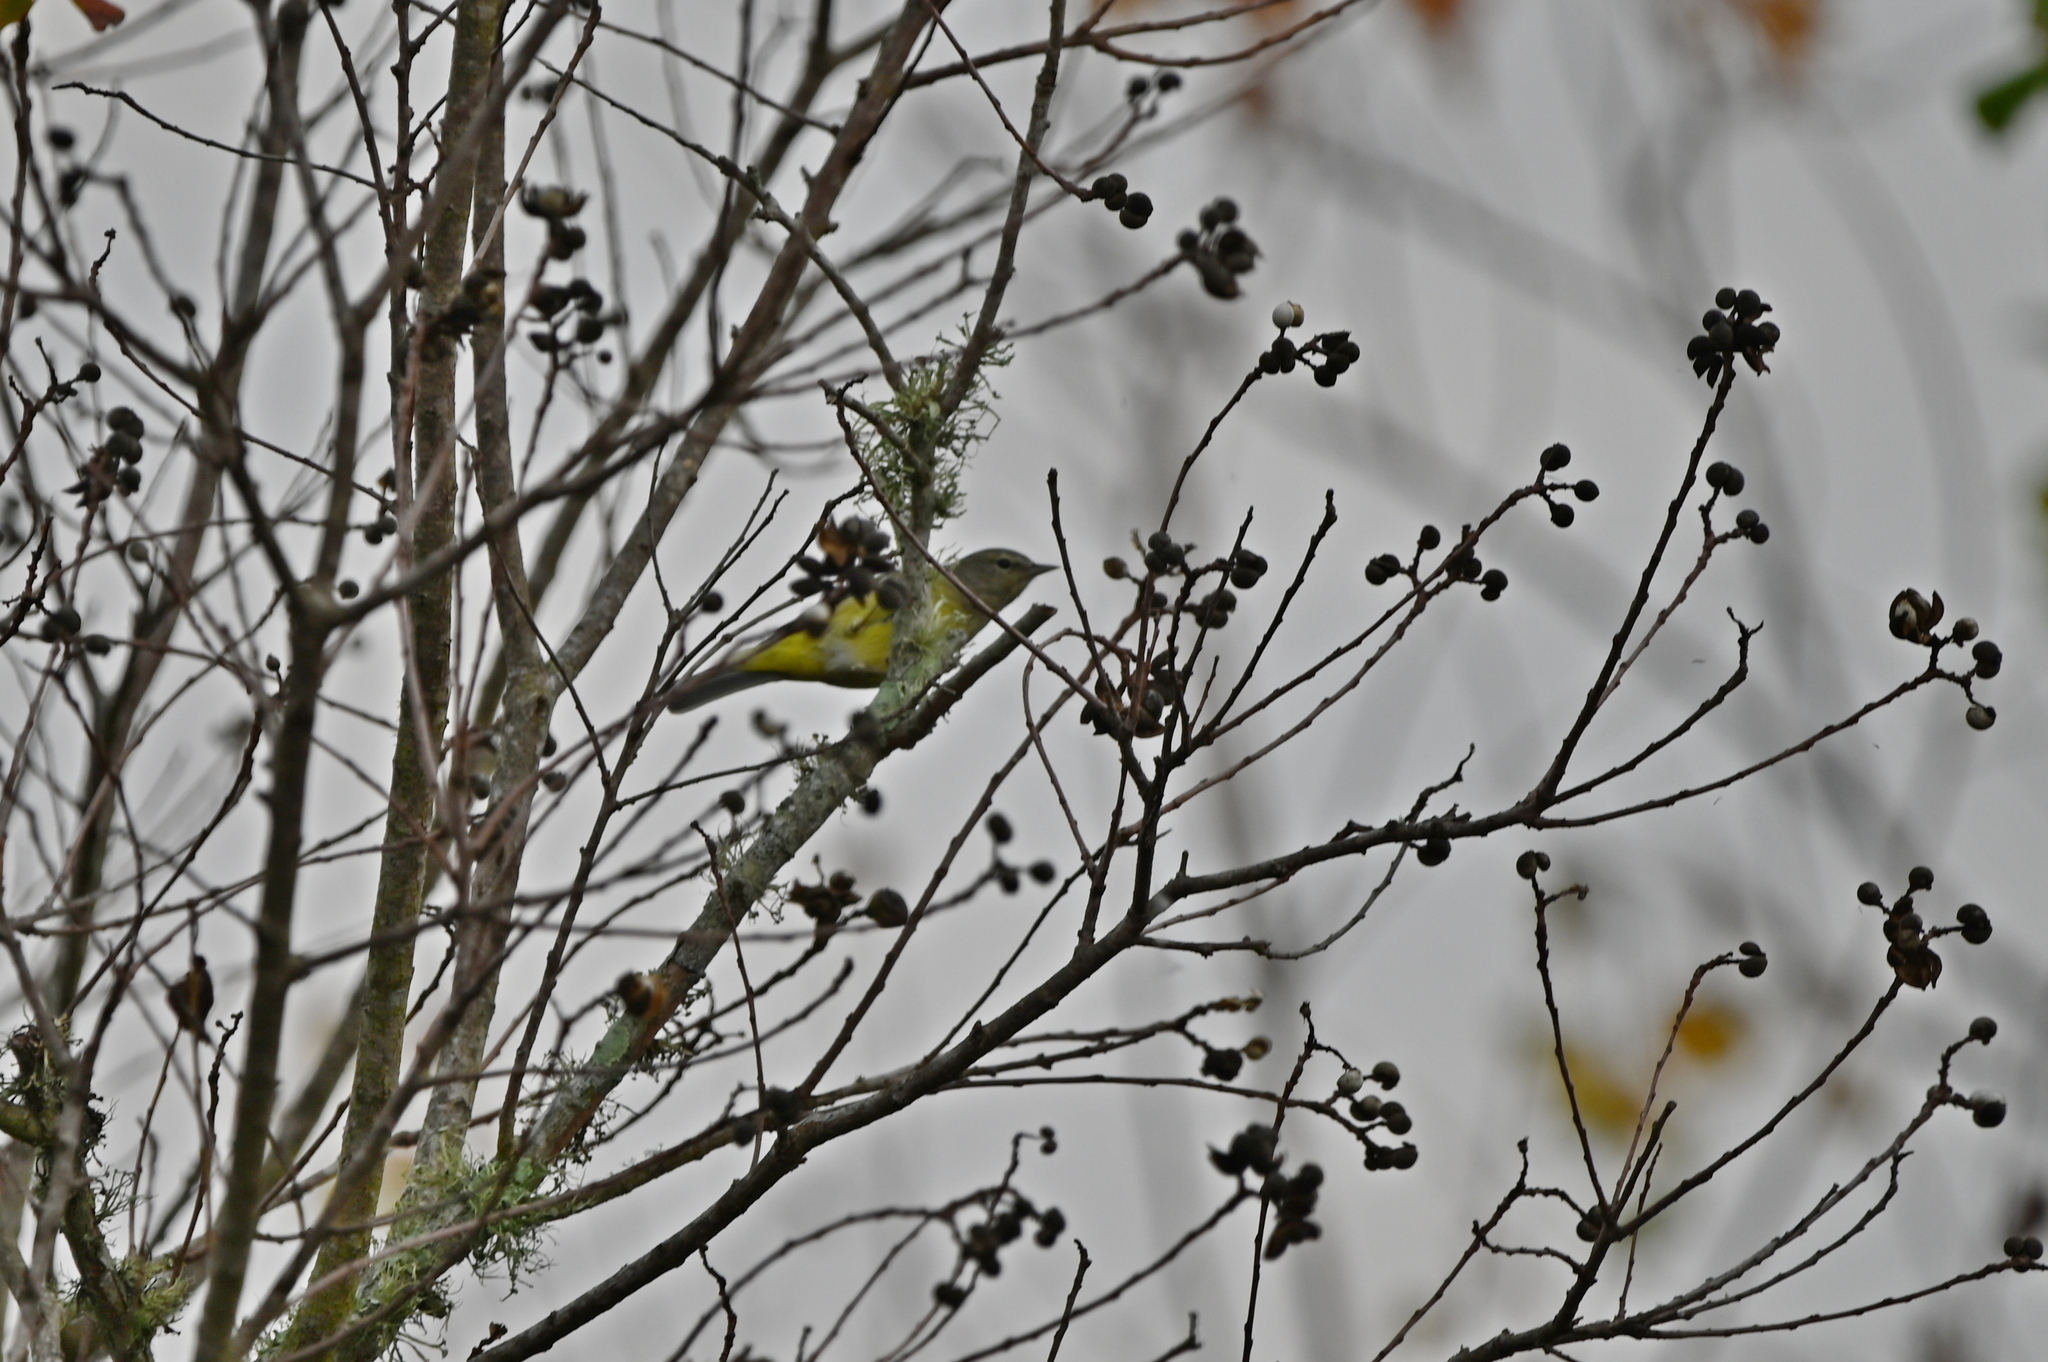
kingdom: Animalia
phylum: Chordata
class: Aves
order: Passeriformes
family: Parulidae
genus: Leiothlypis
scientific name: Leiothlypis celata
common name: Orange-crowned warbler
